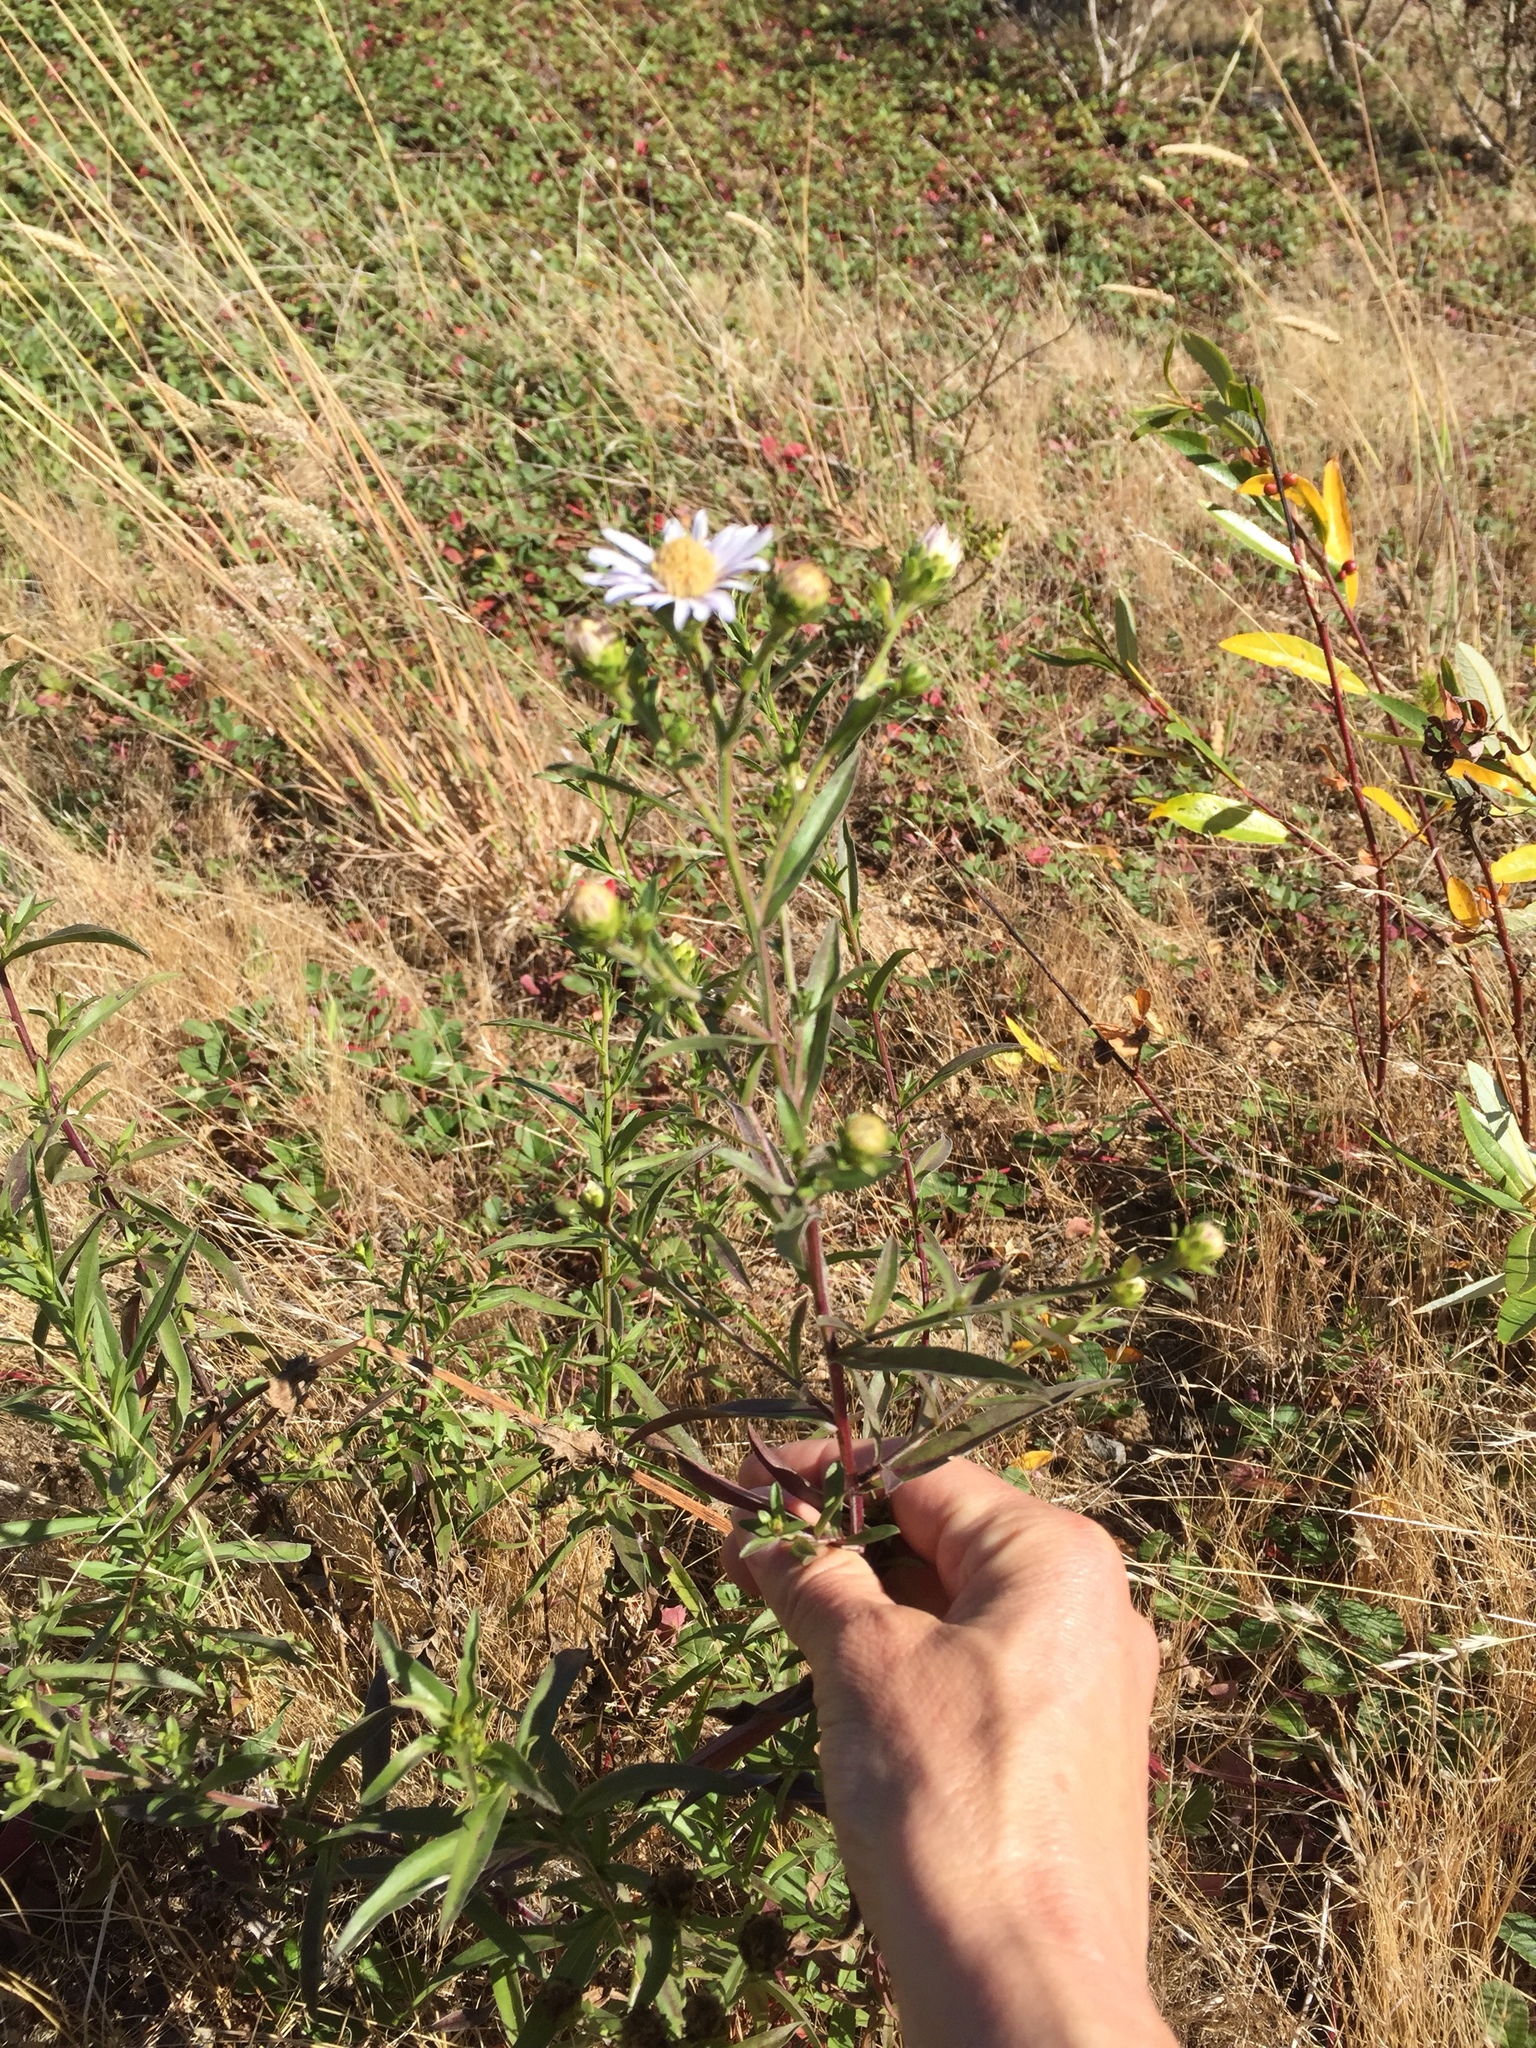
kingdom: Plantae
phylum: Tracheophyta
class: Magnoliopsida
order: Asterales
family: Asteraceae
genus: Symphyotrichum
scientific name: Symphyotrichum chilense
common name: Pacific aster
